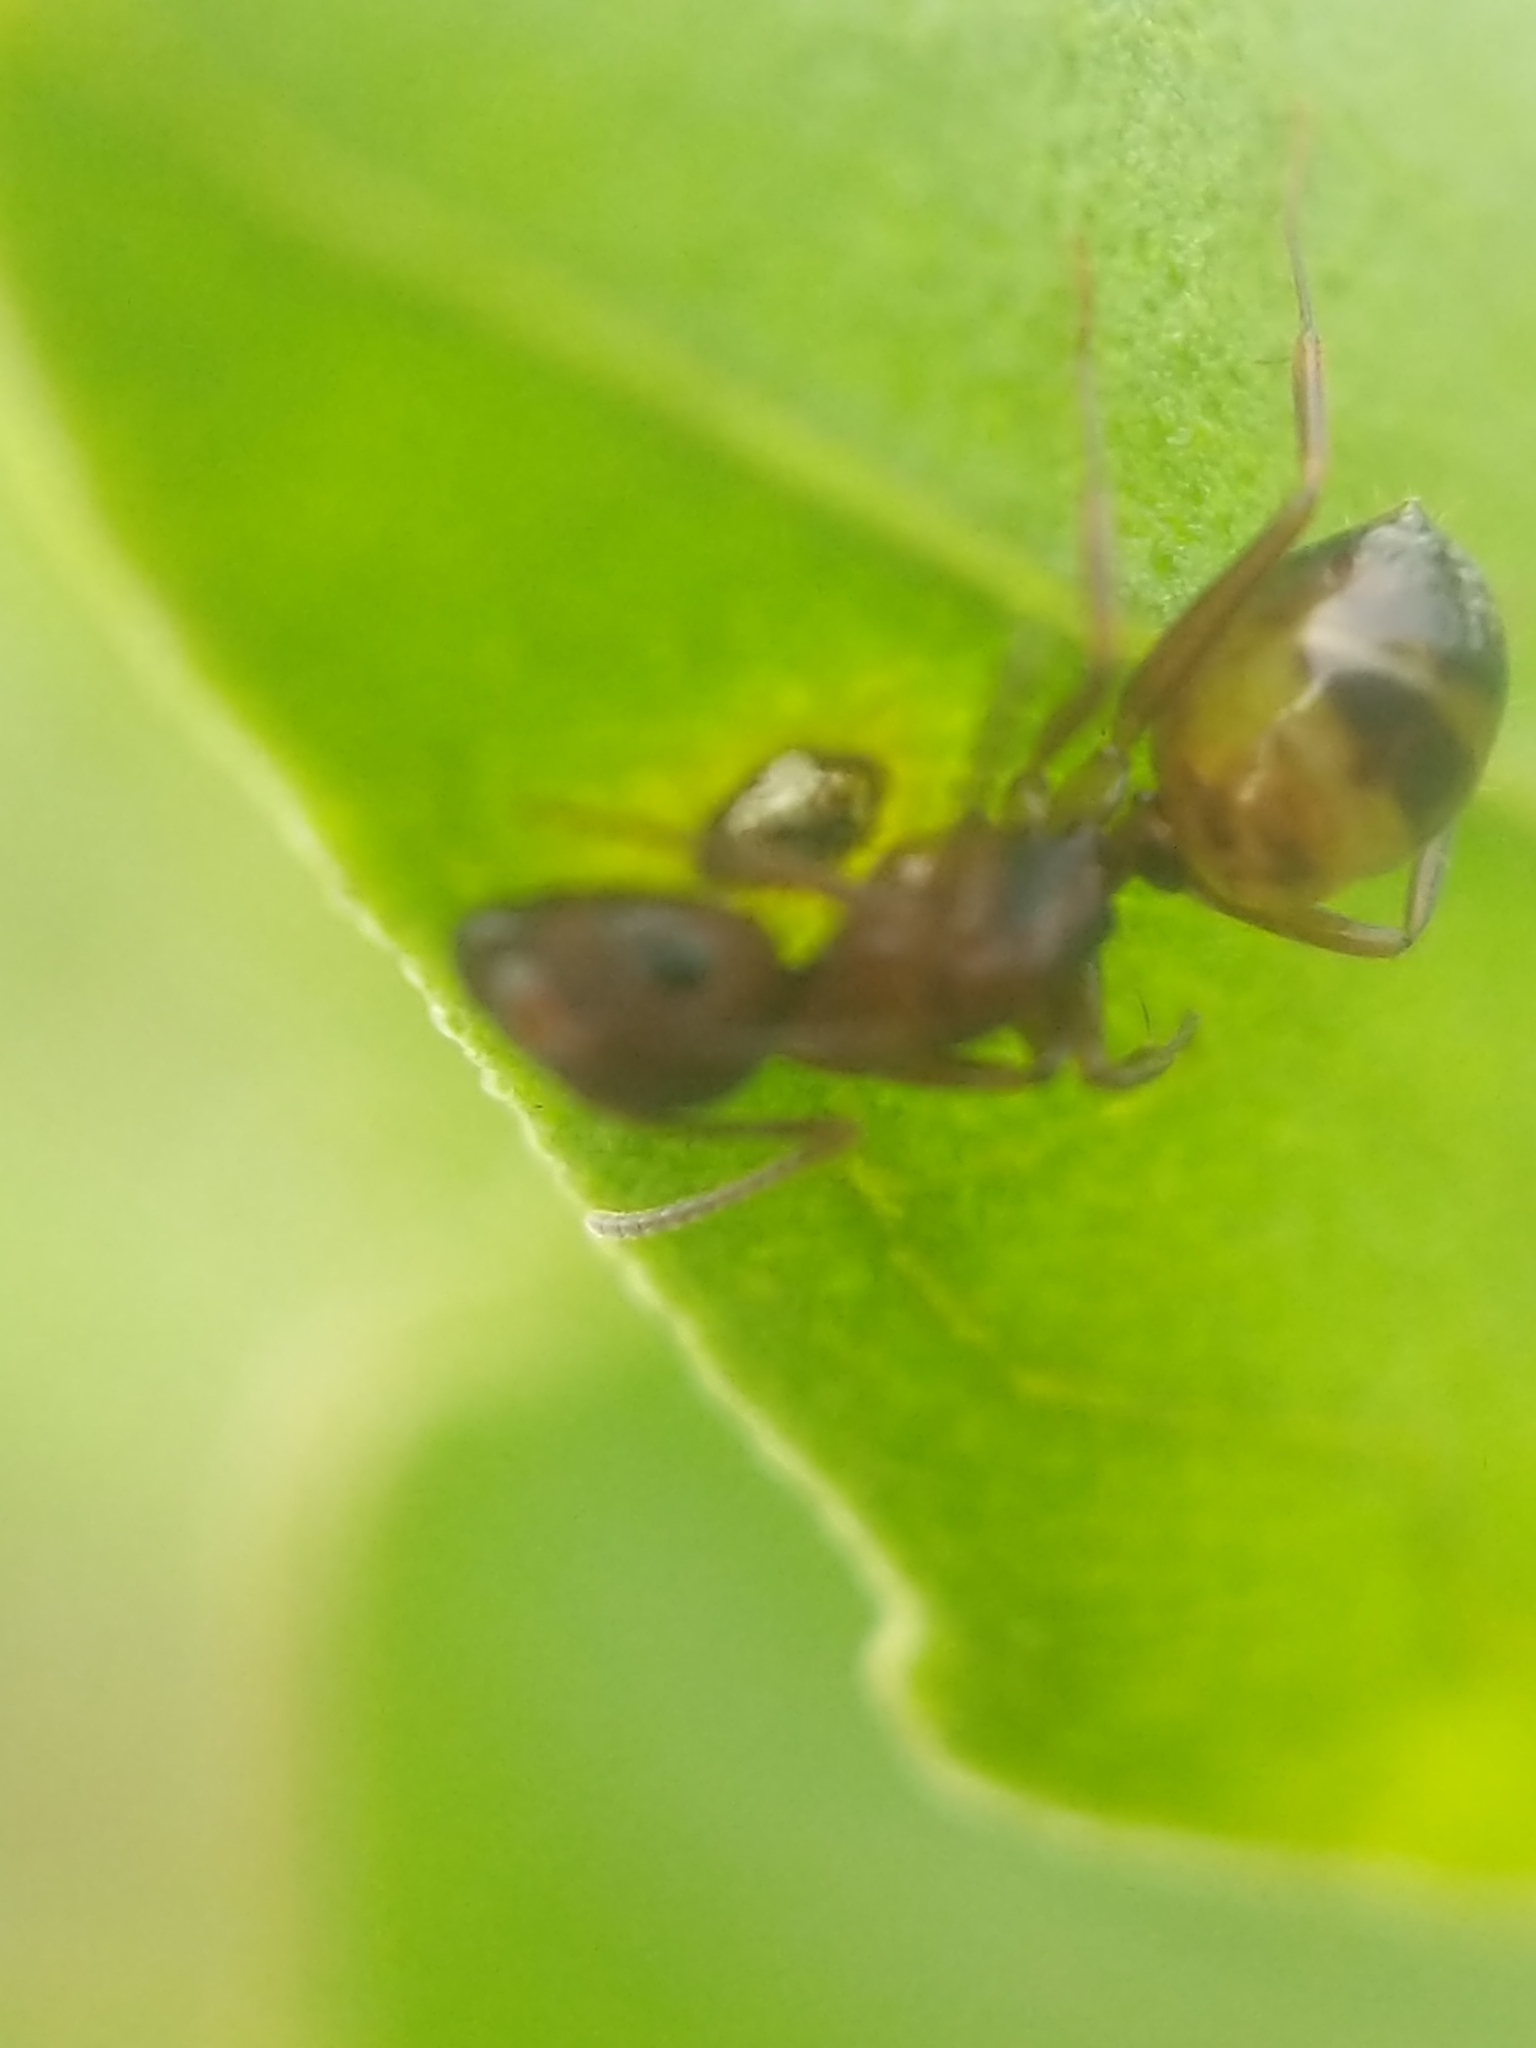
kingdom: Animalia
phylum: Arthropoda
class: Insecta
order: Hymenoptera
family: Formicidae
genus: Camponotus
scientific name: Camponotus subbarbatus
